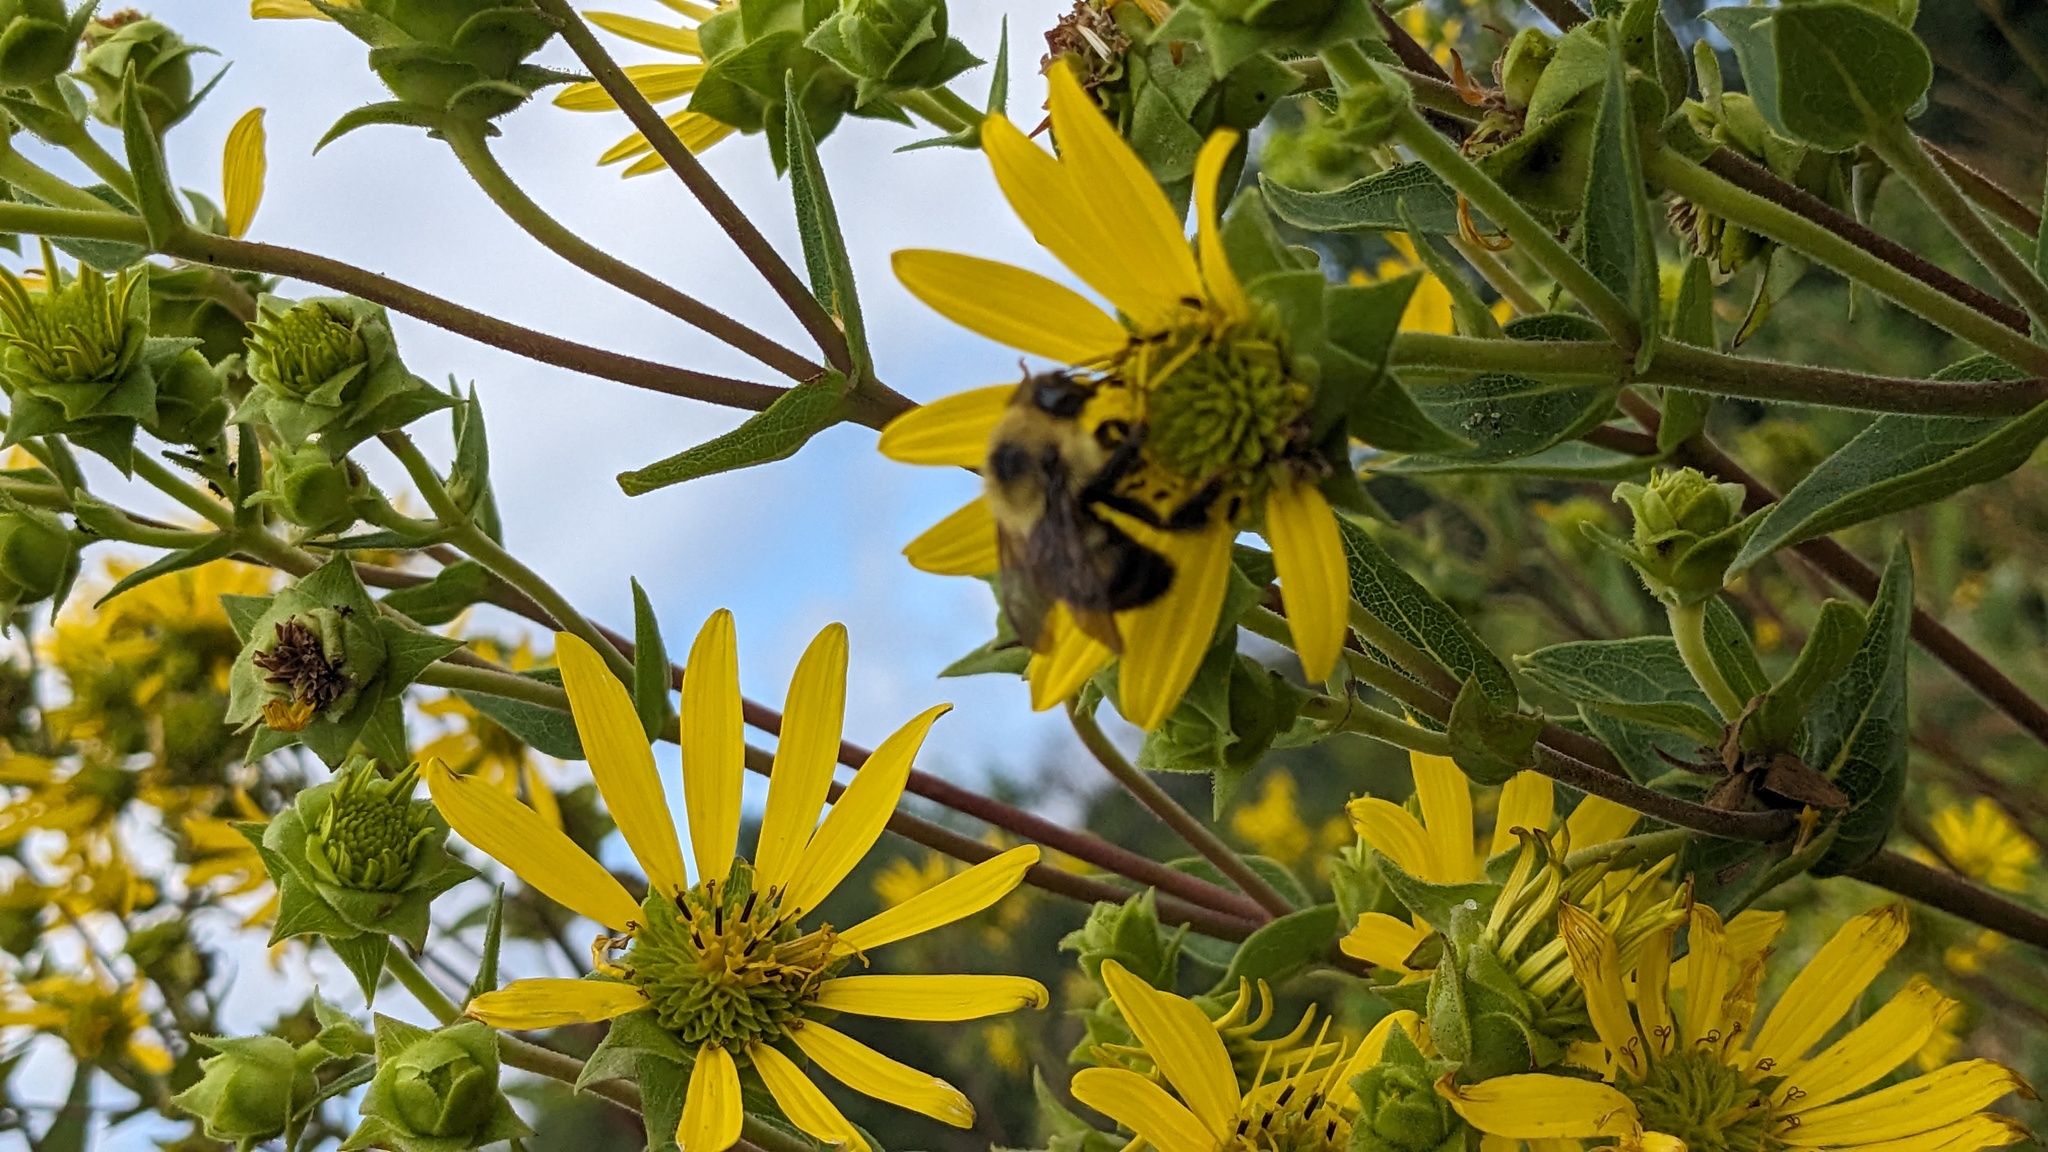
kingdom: Animalia
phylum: Arthropoda
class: Insecta
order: Hymenoptera
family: Apidae
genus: Bombus
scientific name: Bombus rufocinctus
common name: Red-belted bumble bee
